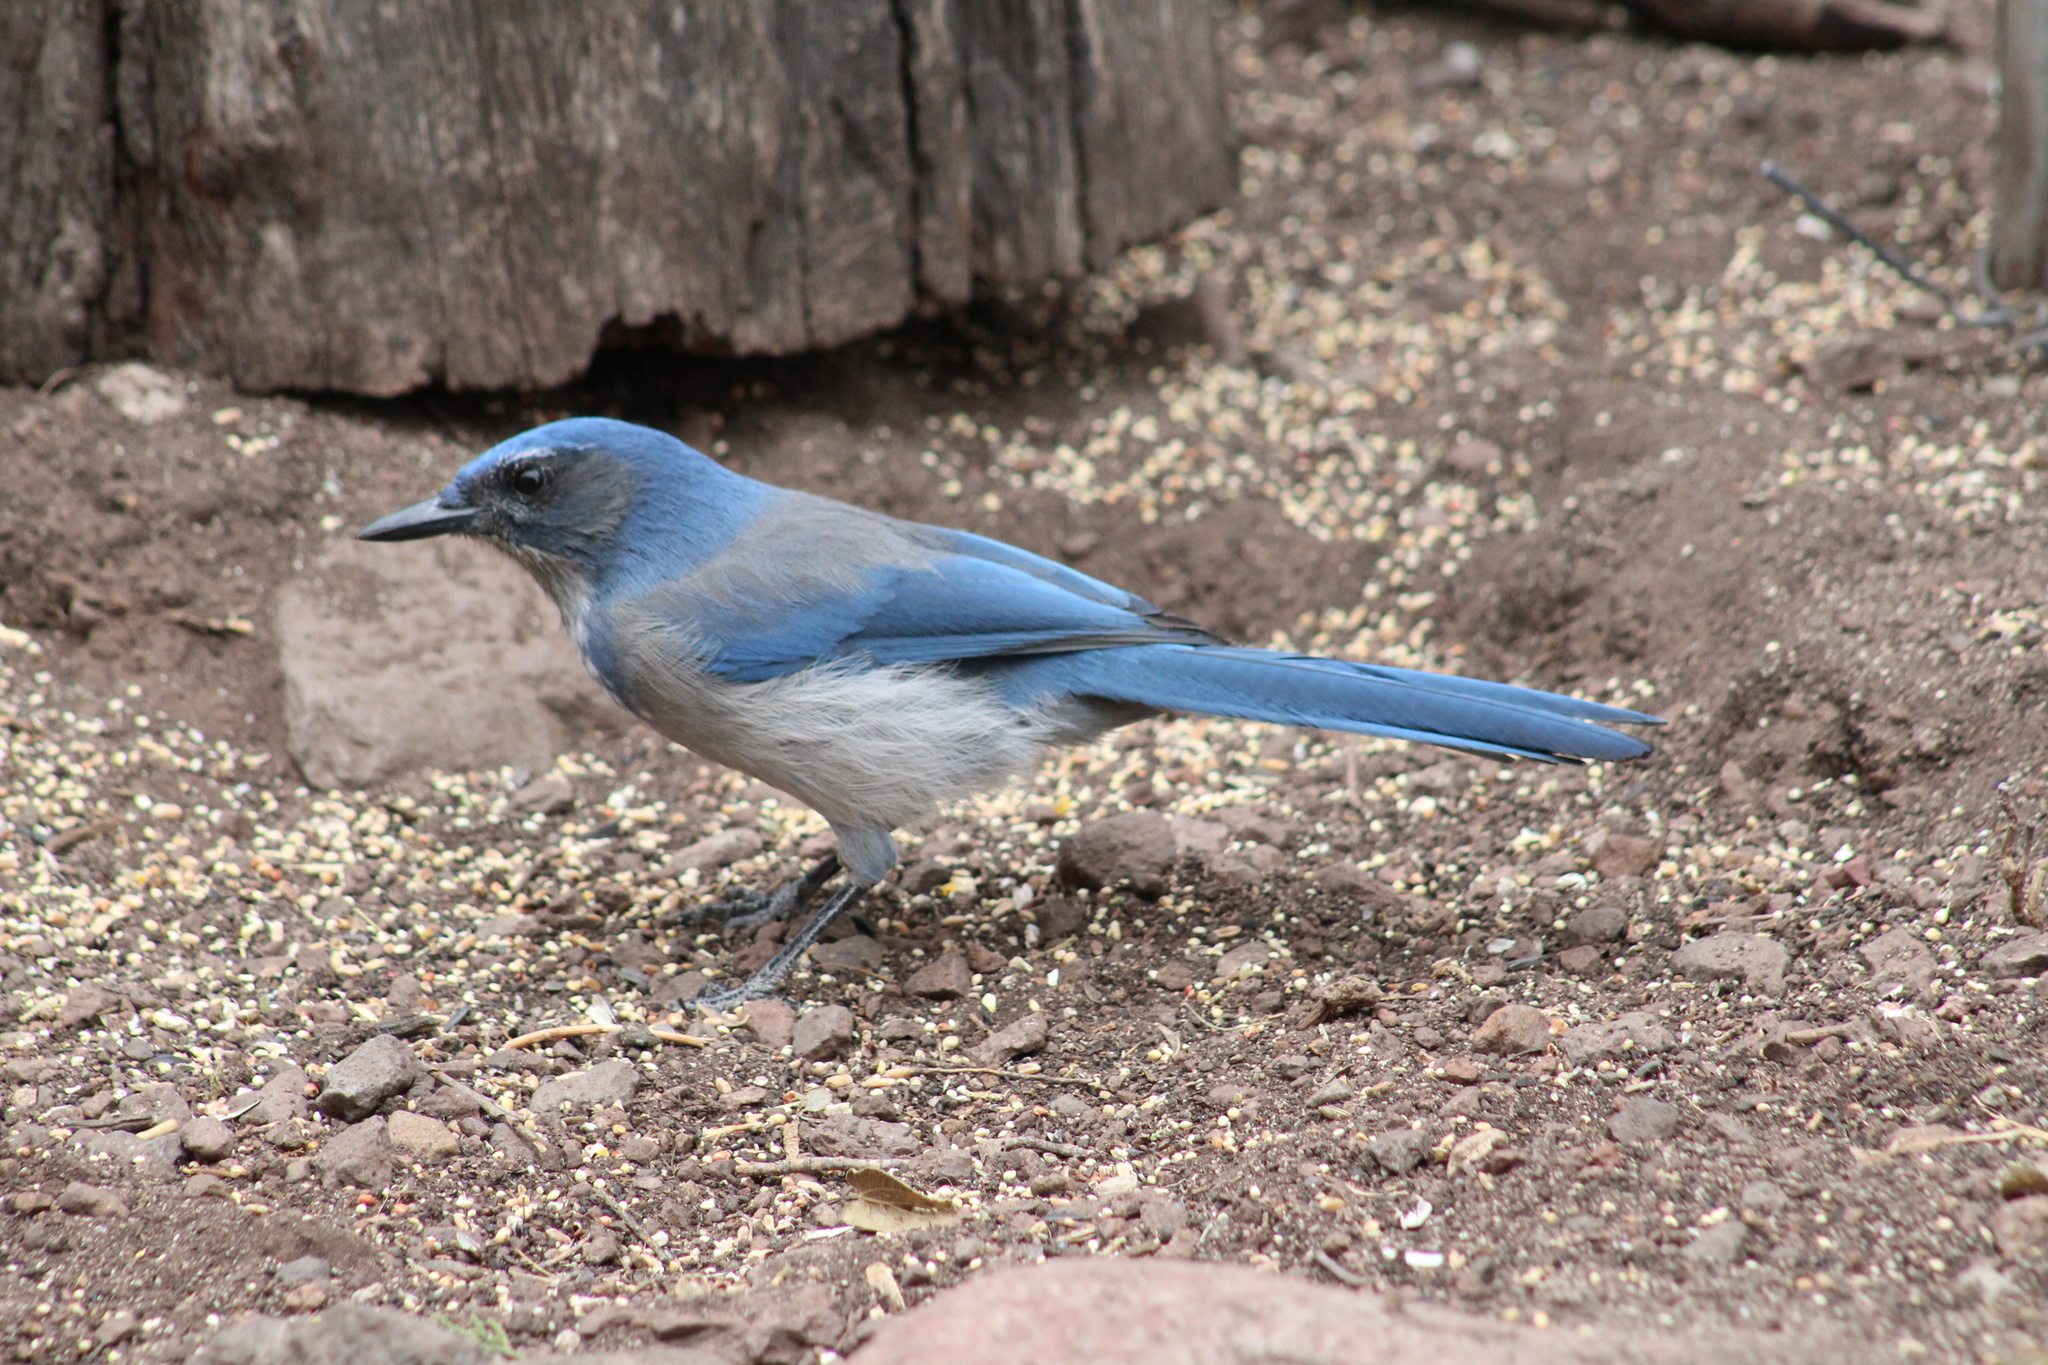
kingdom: Animalia
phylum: Chordata
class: Aves
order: Passeriformes
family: Corvidae
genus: Aphelocoma
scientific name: Aphelocoma woodhouseii
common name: Woodhouse's scrub-jay
